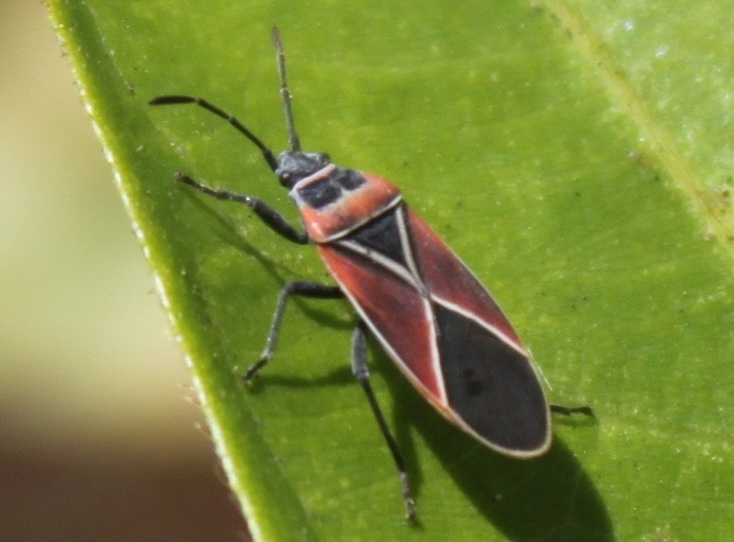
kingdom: Animalia
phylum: Arthropoda
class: Insecta
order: Hemiptera
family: Lygaeidae
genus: Neacoryphus
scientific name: Neacoryphus bicrucis
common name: Lygaeid bug
